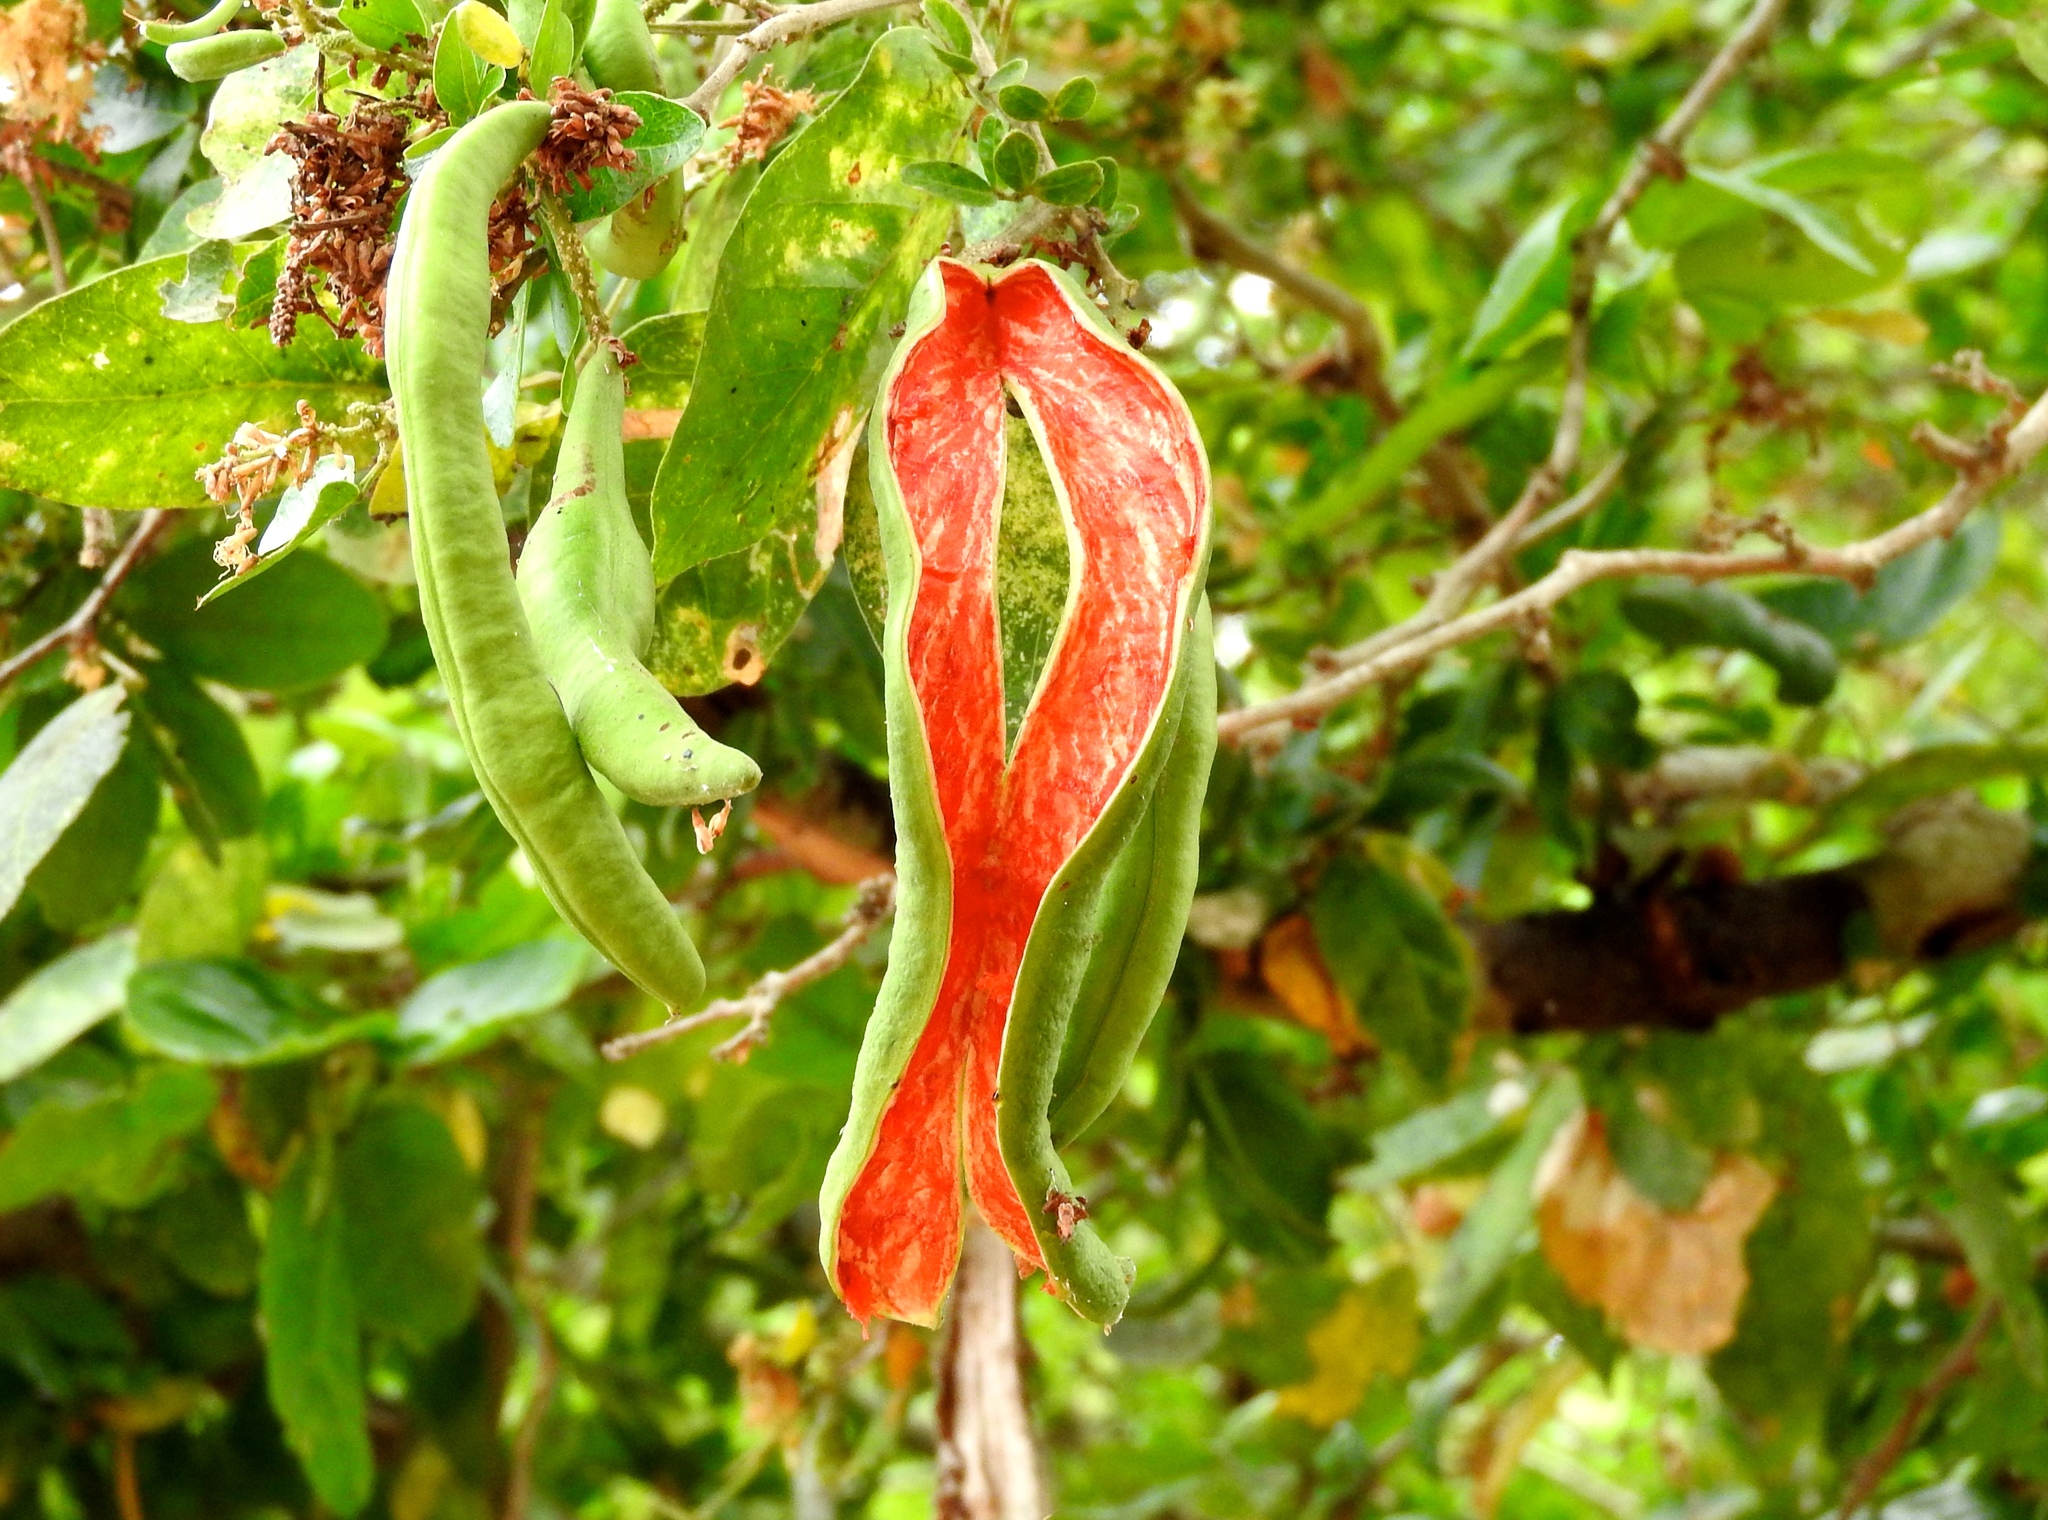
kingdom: Plantae
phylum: Tracheophyta
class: Magnoliopsida
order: Fabales
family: Fabaceae
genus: Pithecellobium
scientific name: Pithecellobium lanceolatum
